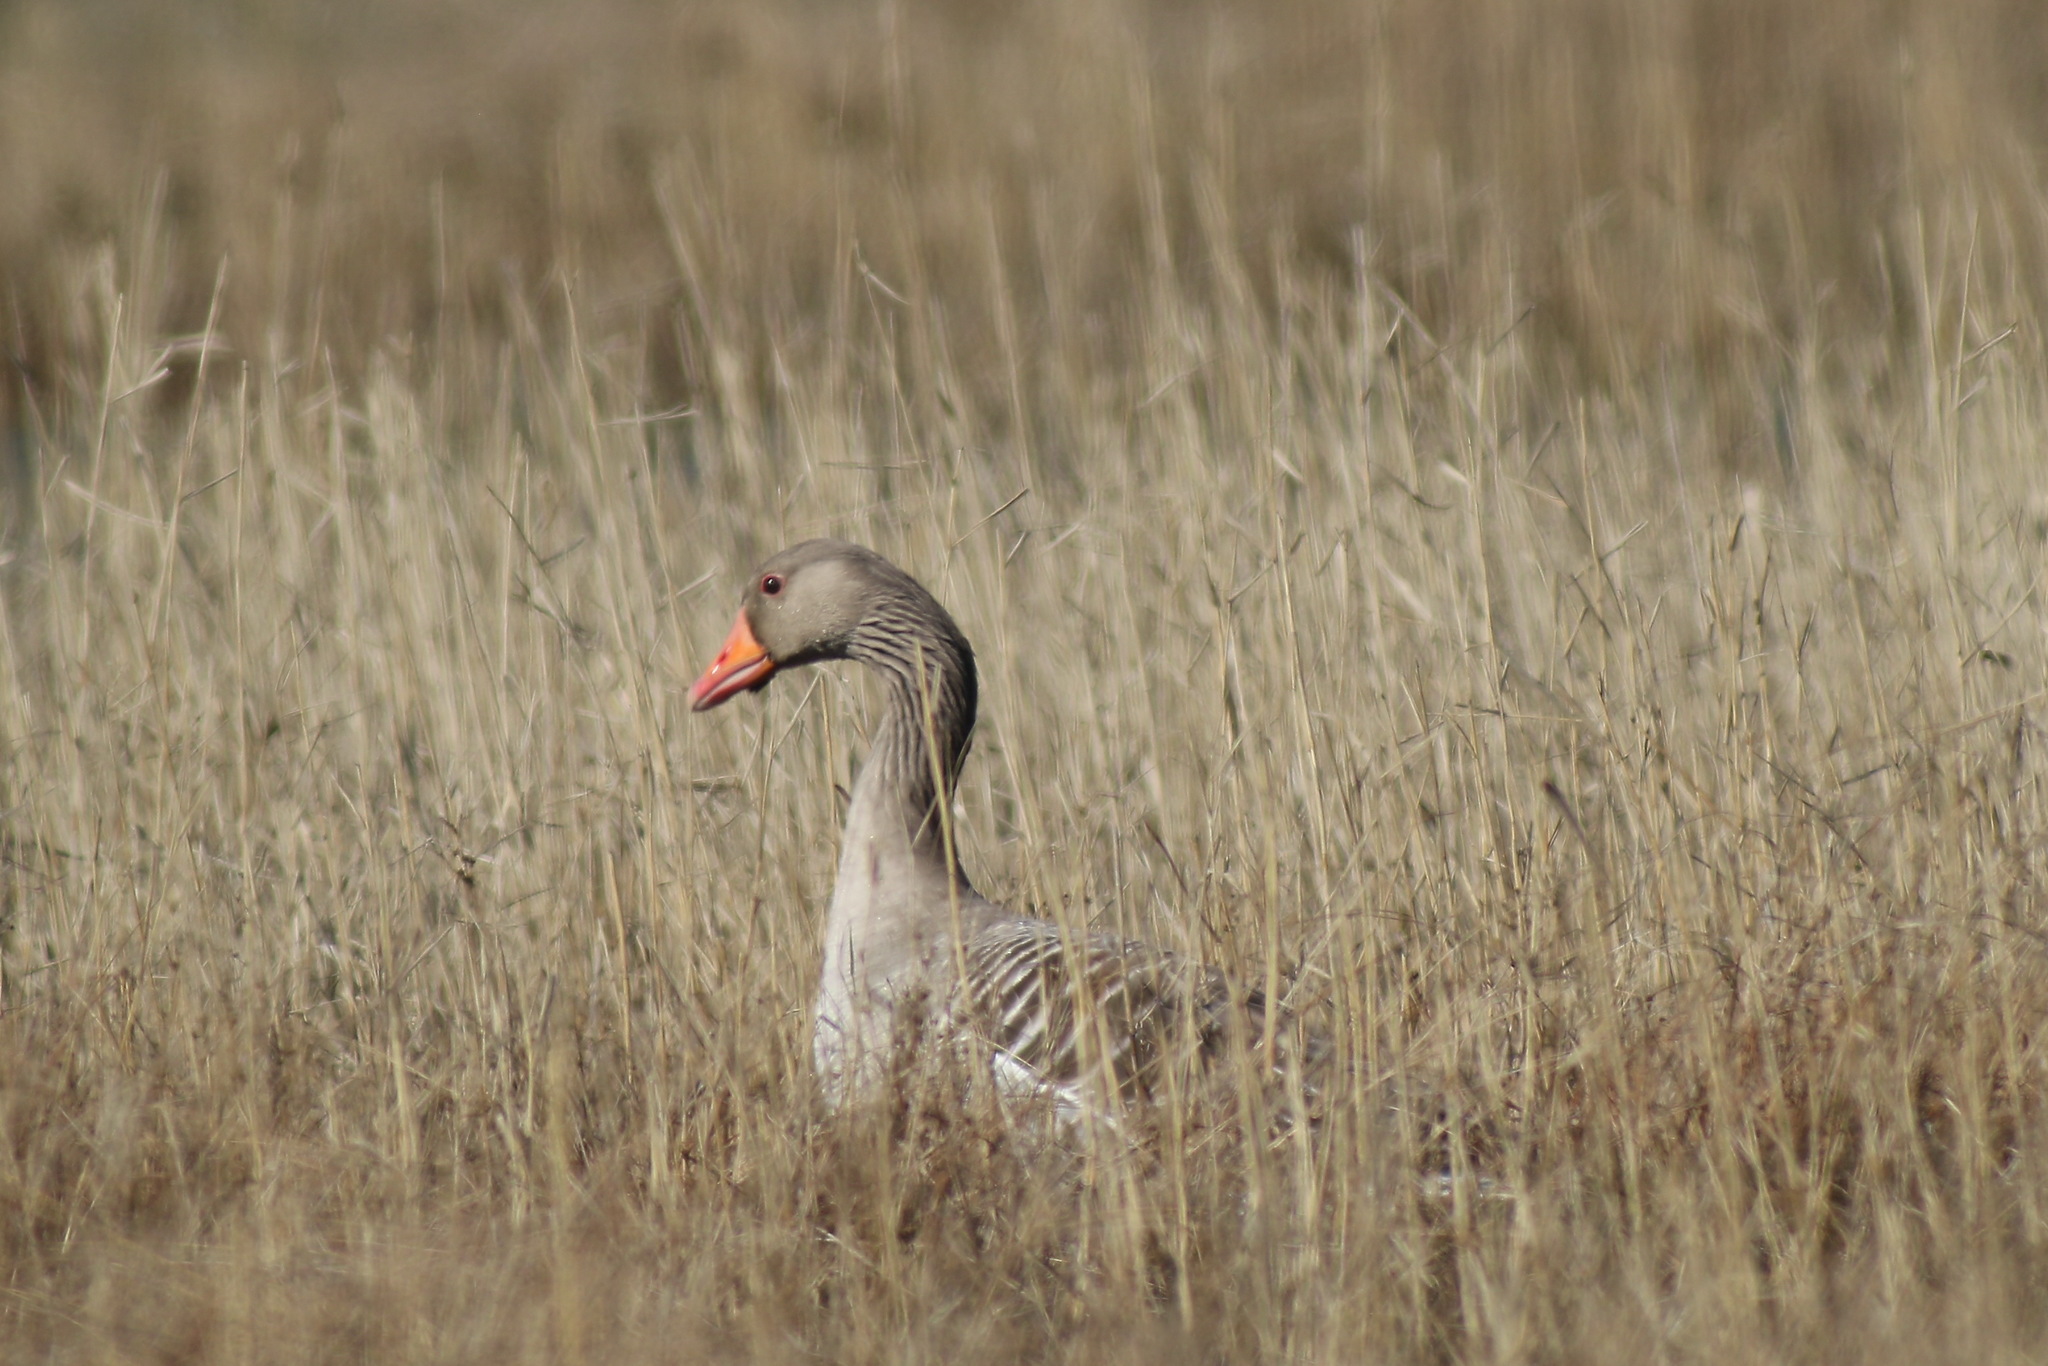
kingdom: Animalia
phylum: Chordata
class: Aves
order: Anseriformes
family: Anatidae
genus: Anser
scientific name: Anser anser
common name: Greylag goose
